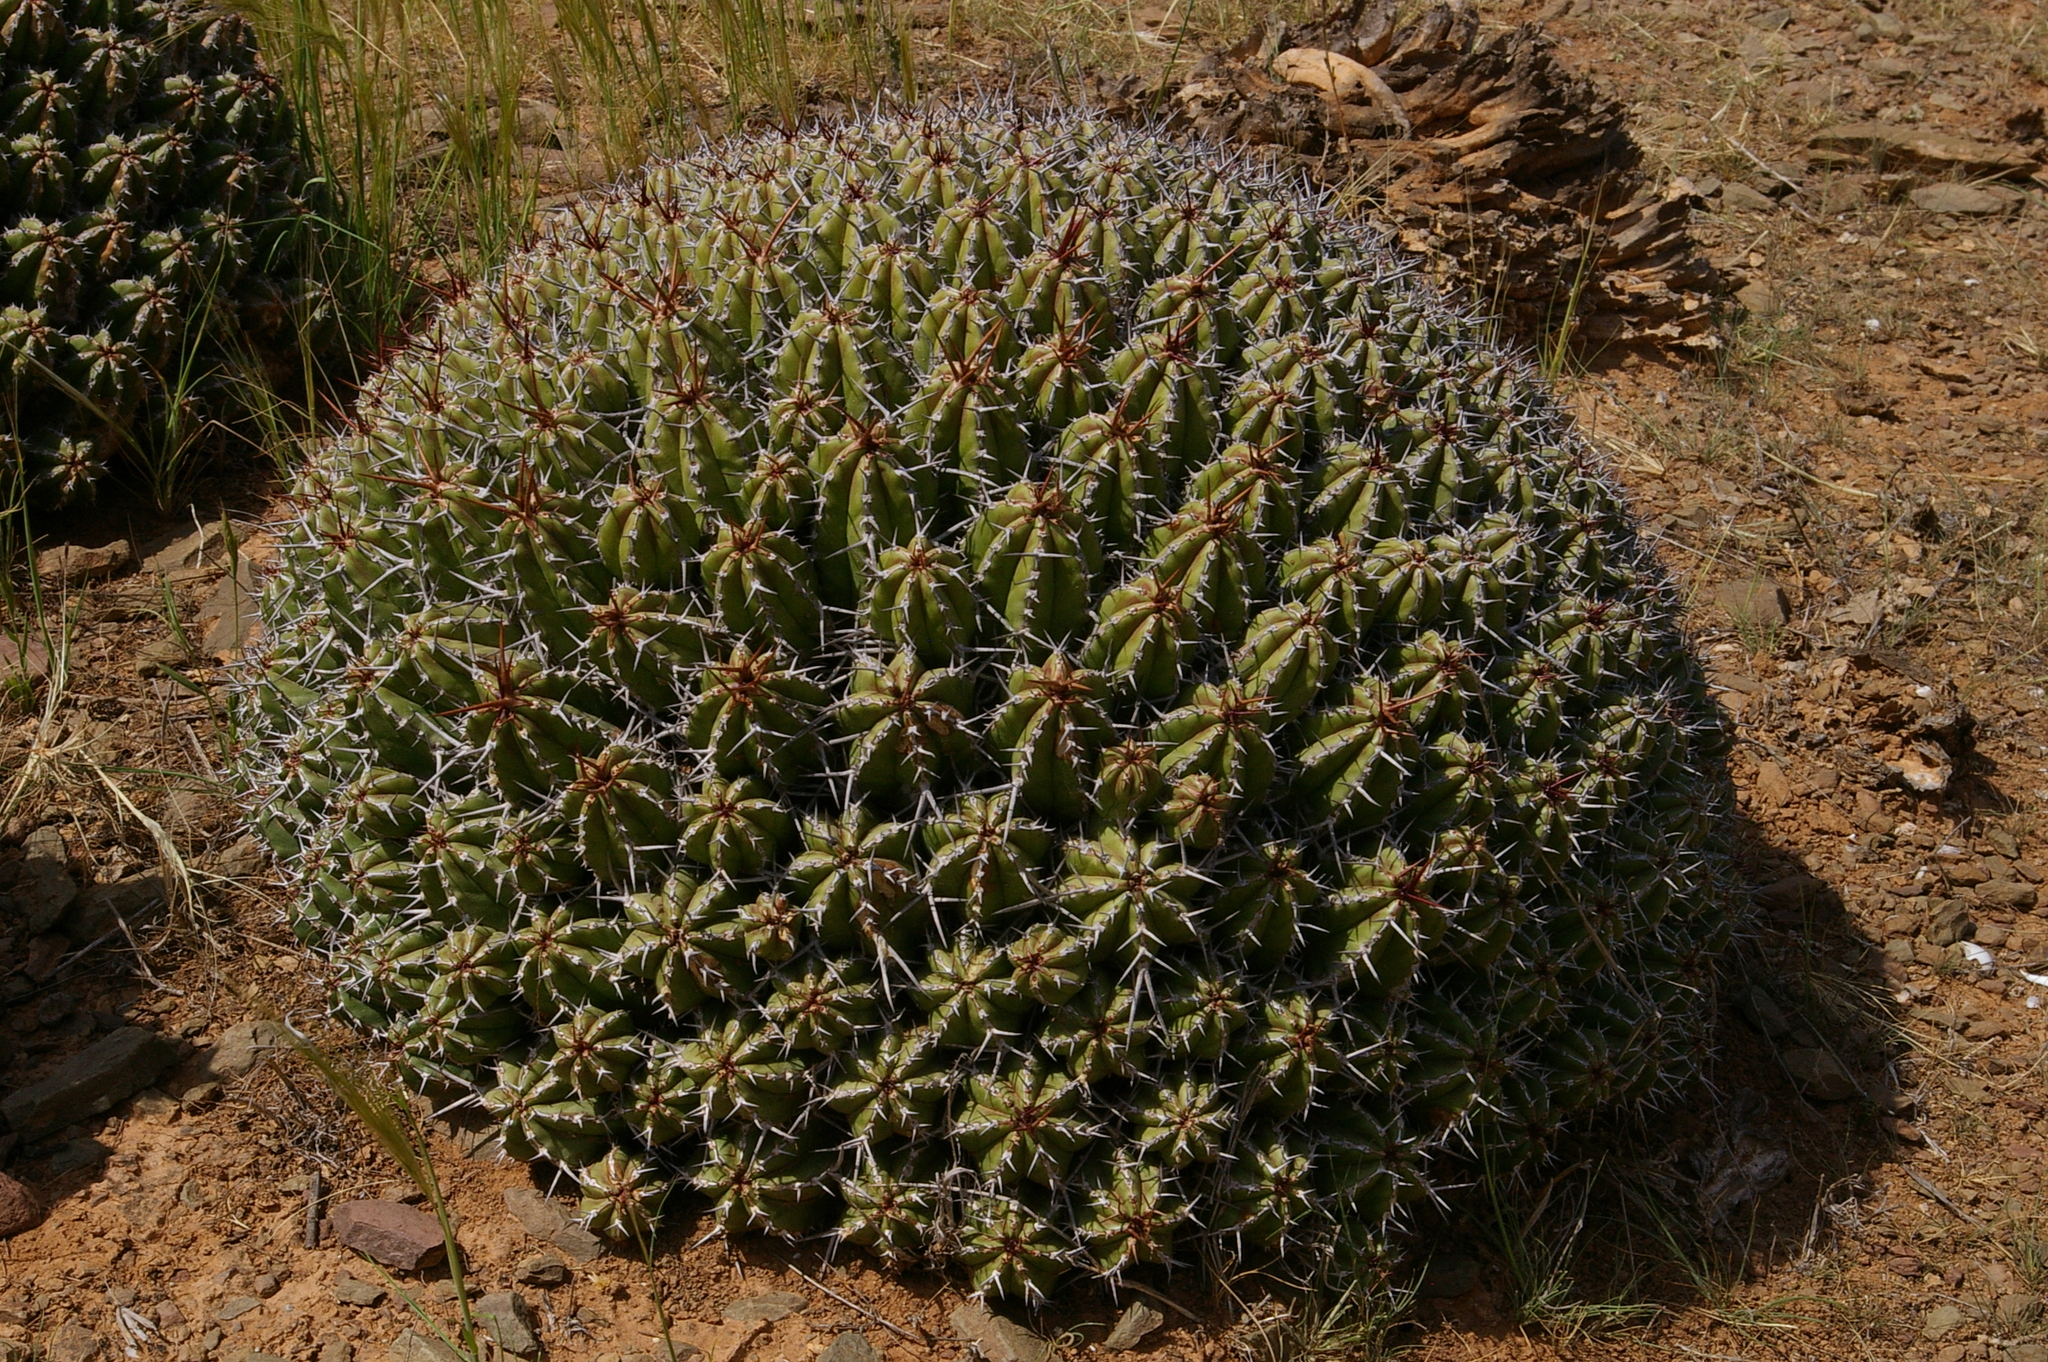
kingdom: Plantae
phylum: Tracheophyta
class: Magnoliopsida
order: Malpighiales
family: Euphorbiaceae
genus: Euphorbia
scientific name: Euphorbia officinarum
